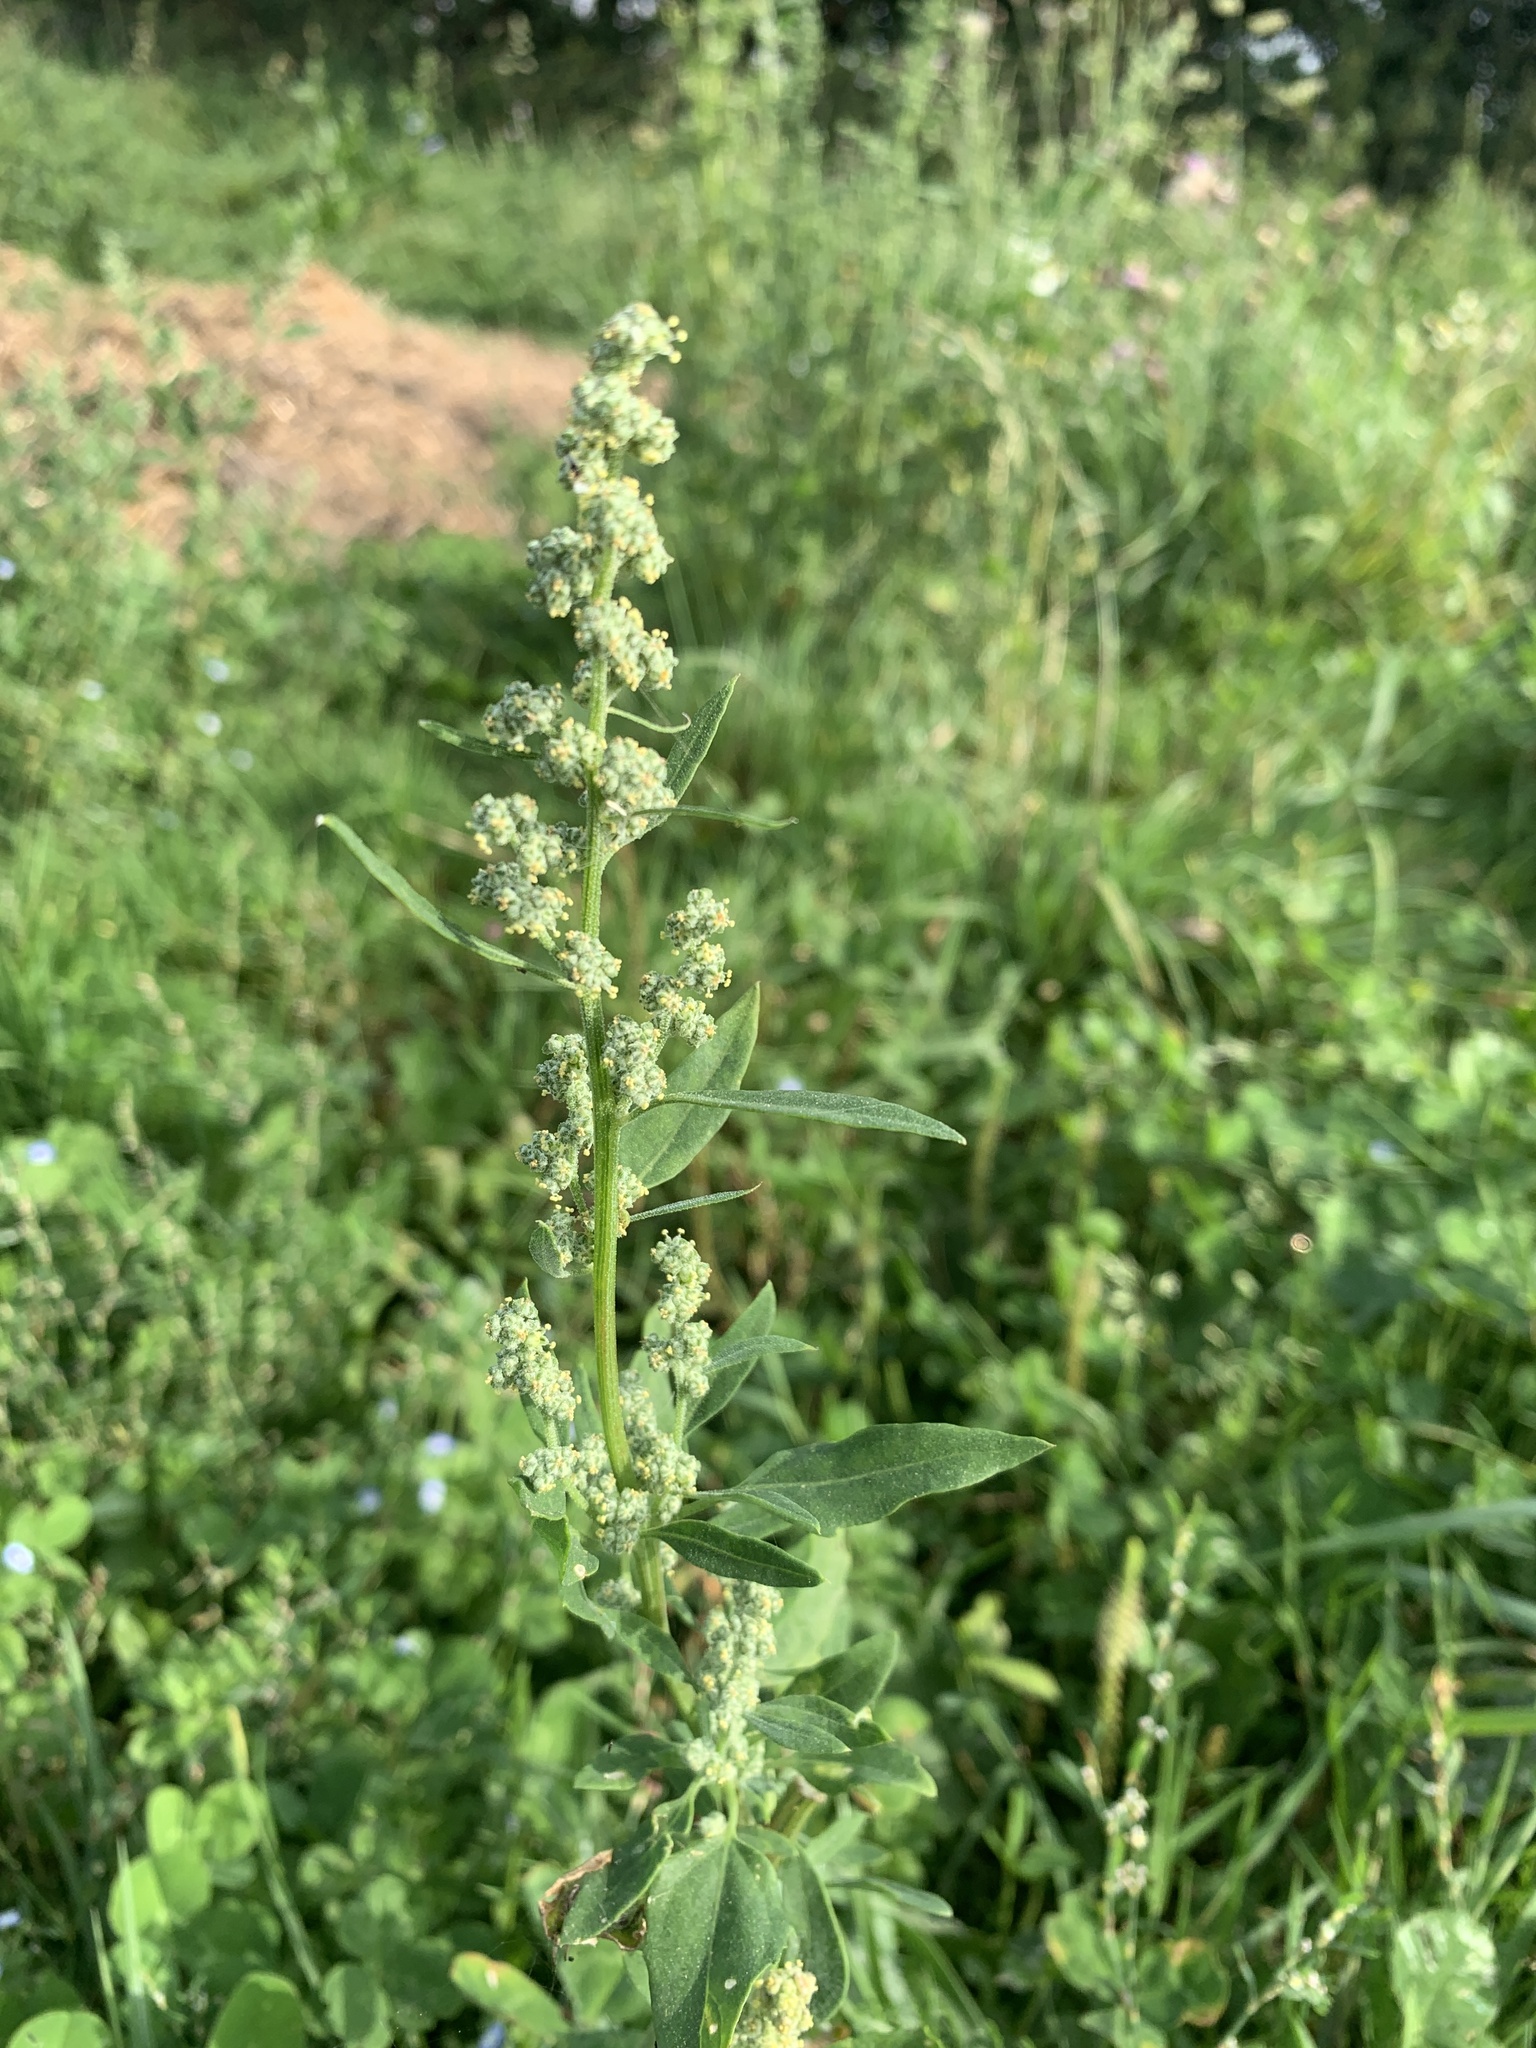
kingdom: Plantae
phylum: Tracheophyta
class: Magnoliopsida
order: Caryophyllales
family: Amaranthaceae
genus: Chenopodium
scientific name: Chenopodium album
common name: Fat-hen
